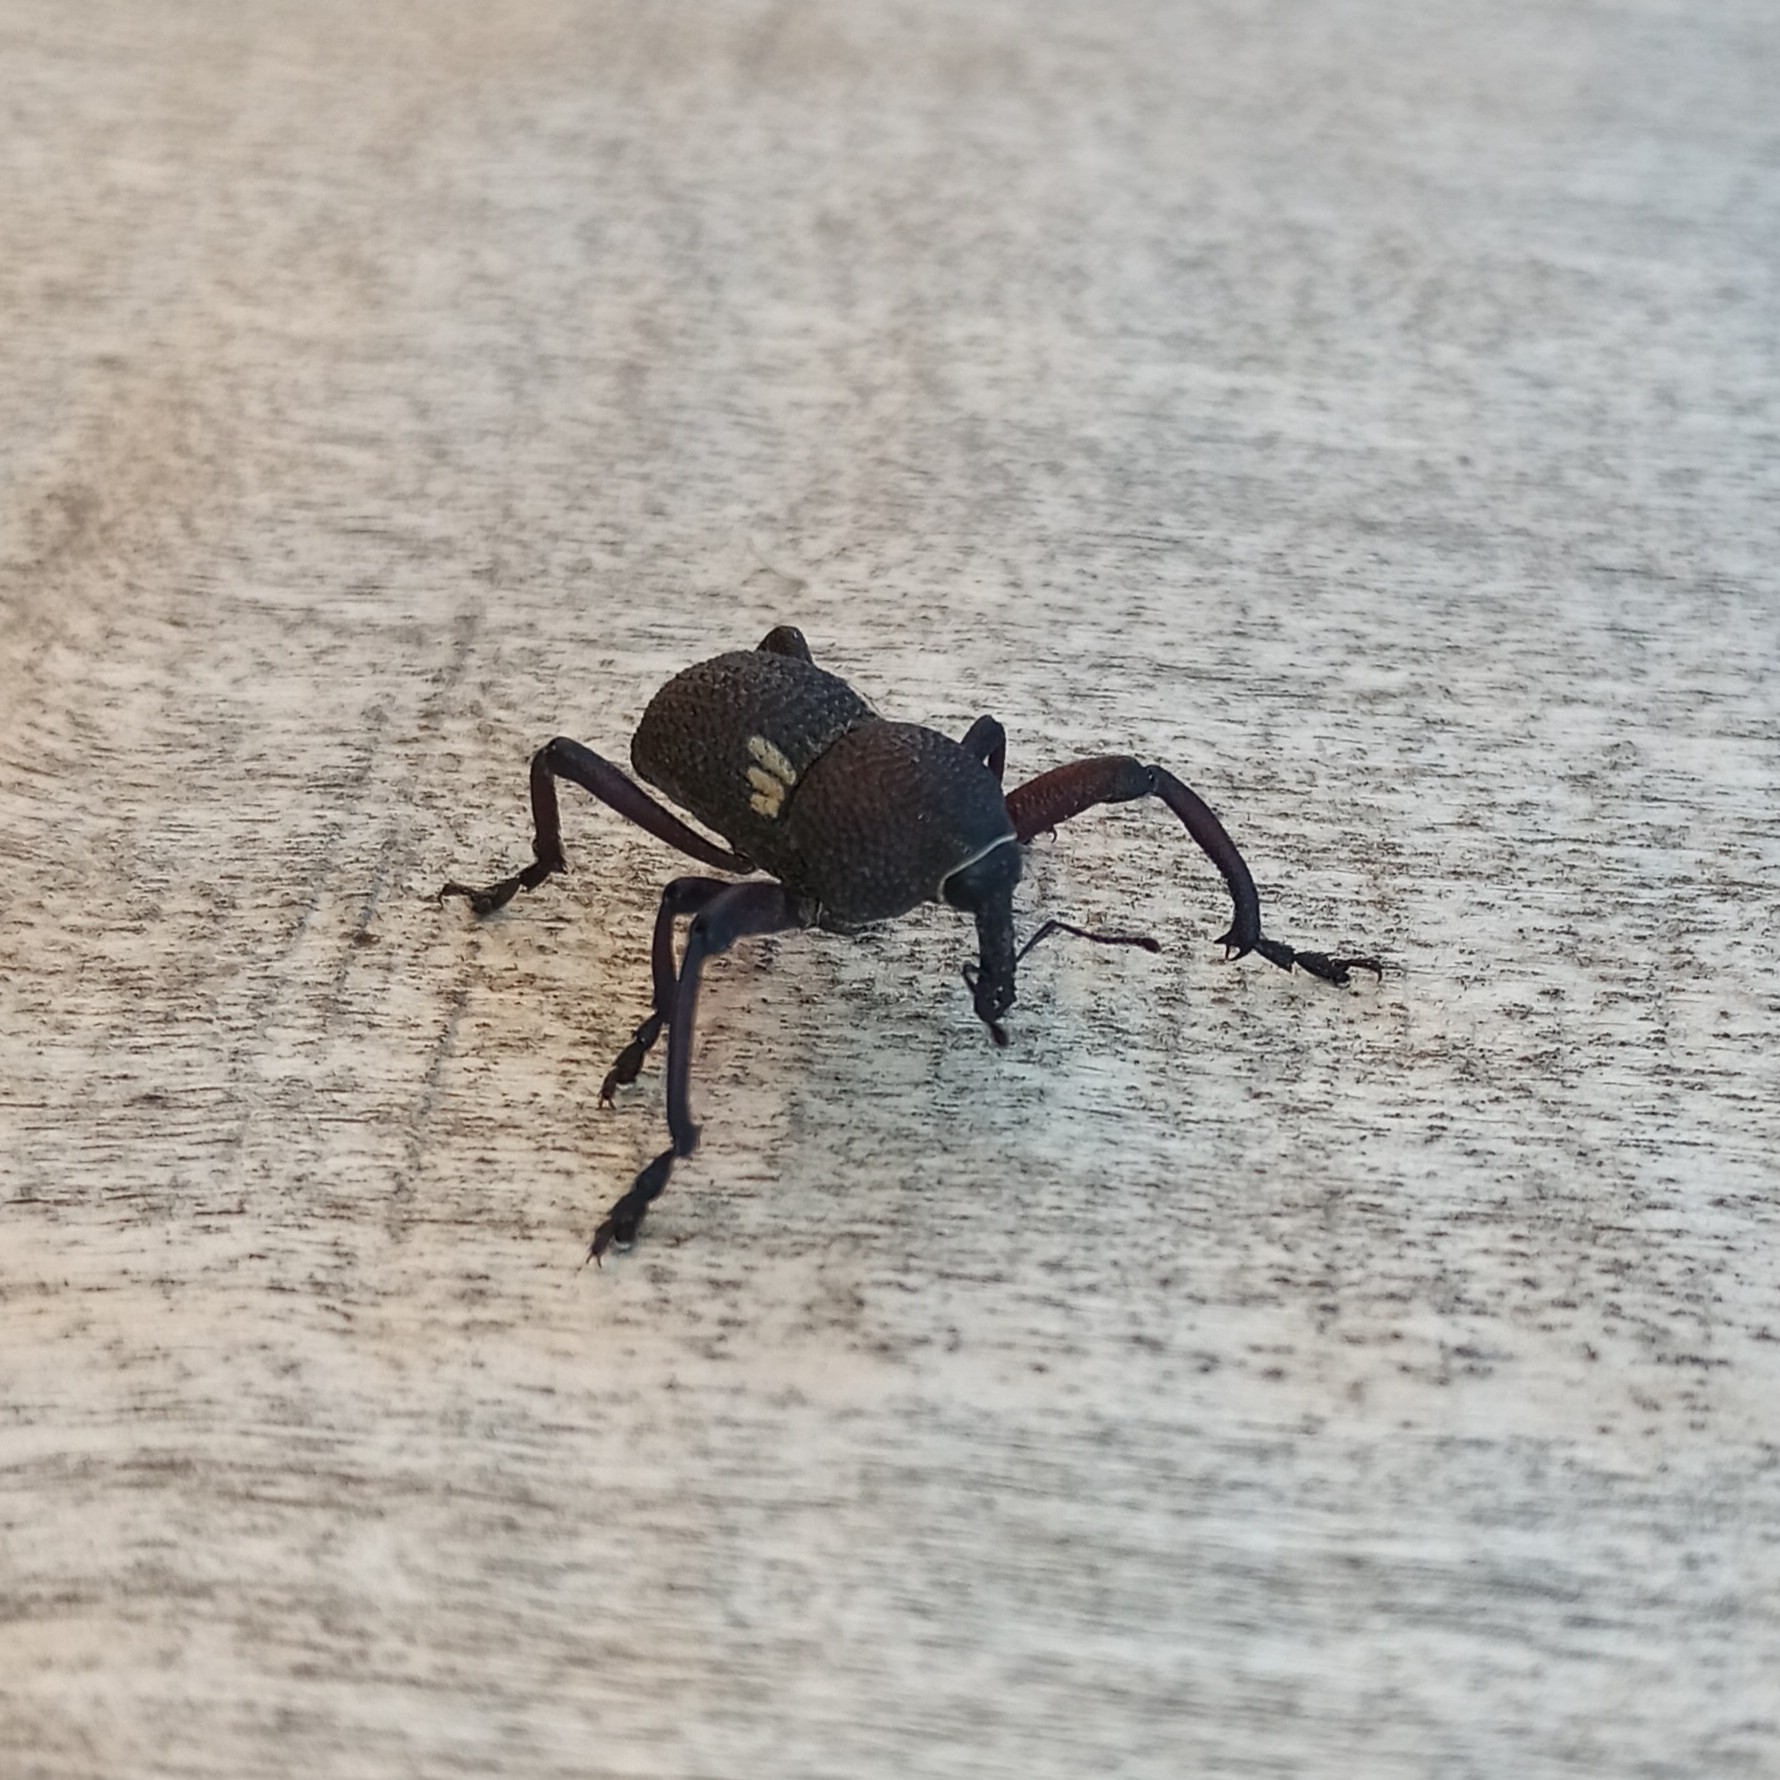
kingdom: Animalia
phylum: Arthropoda
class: Insecta
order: Coleoptera
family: Curculionidae
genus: Rhyephenes
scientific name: Rhyephenes humeralis
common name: Araè±ita chilena del pino
